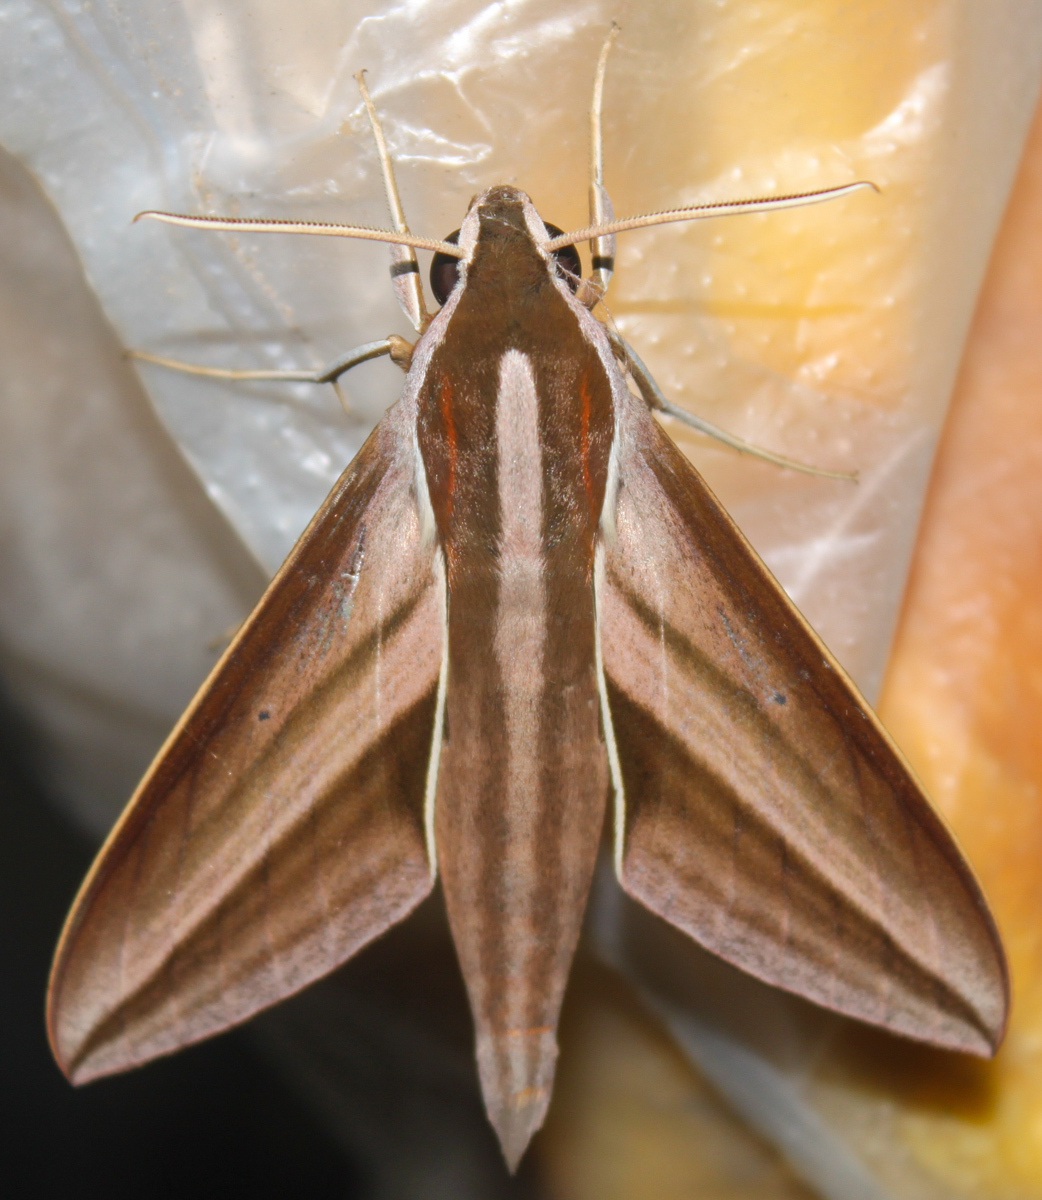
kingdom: Animalia
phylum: Arthropoda
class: Insecta
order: Lepidoptera
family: Sphingidae
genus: Theretra
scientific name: Theretra suffusa
